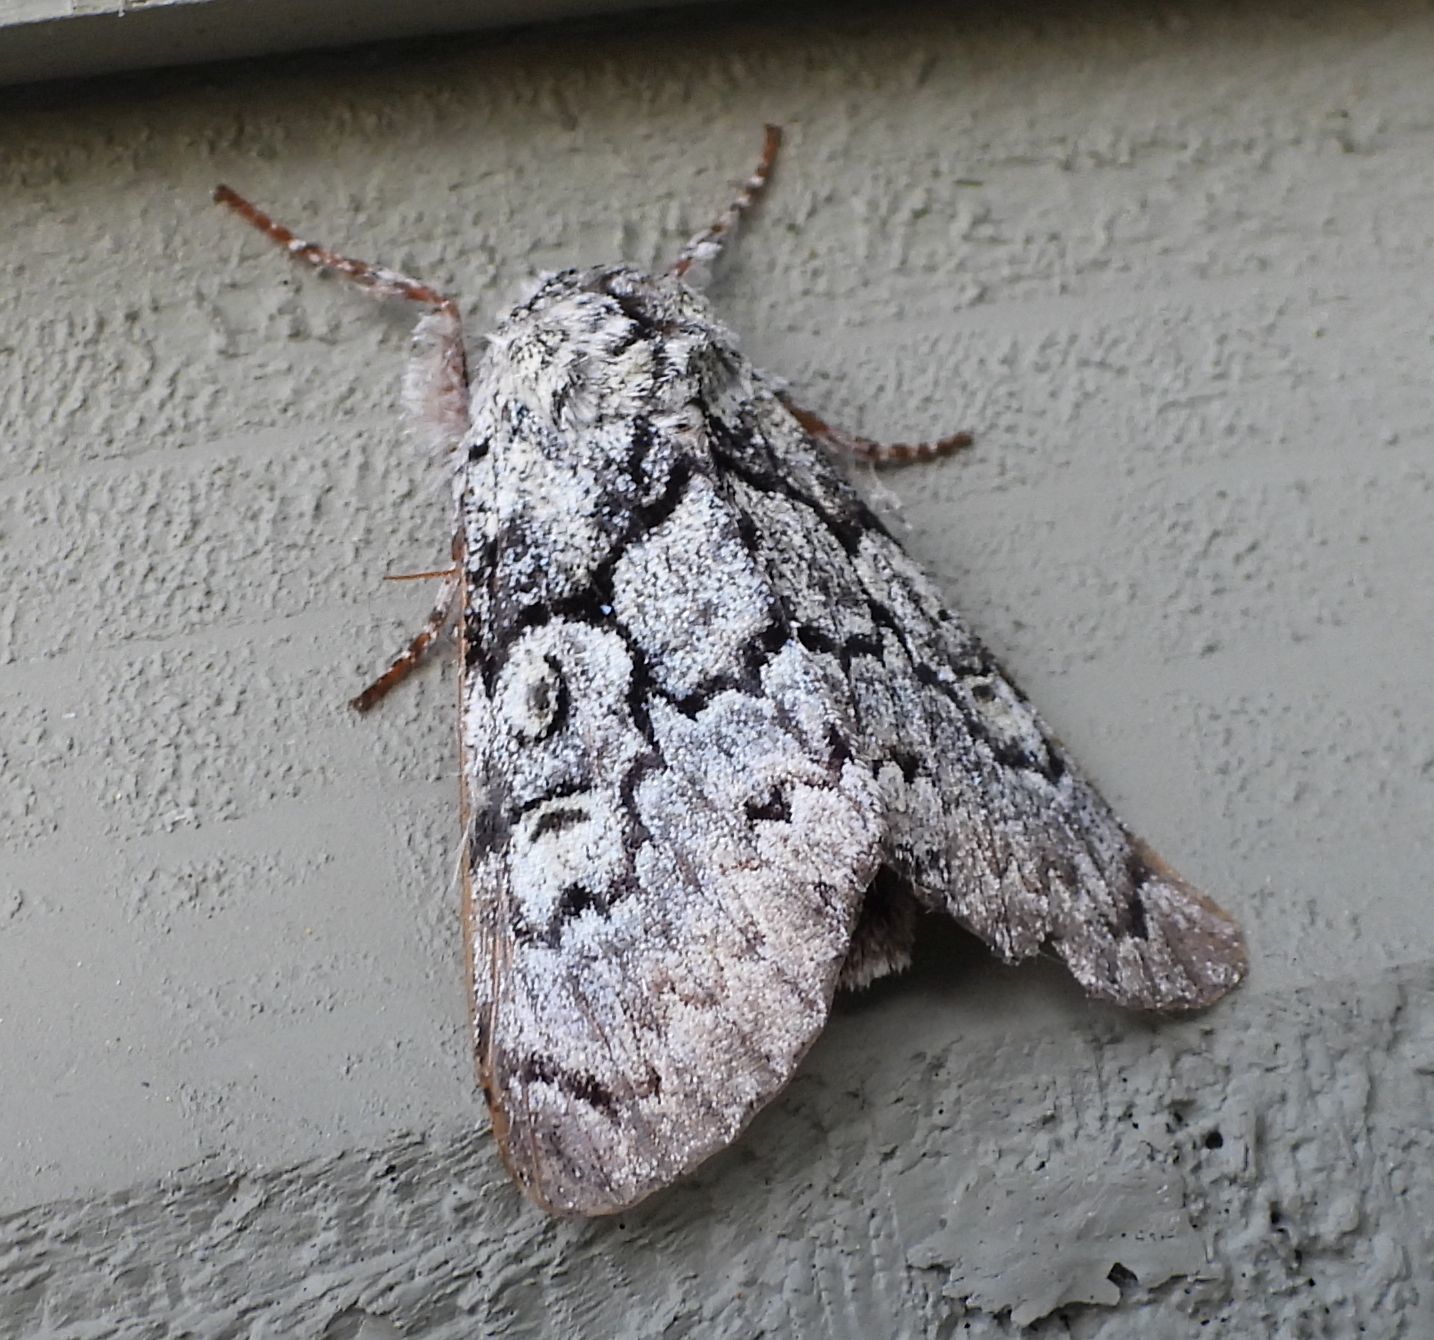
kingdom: Animalia
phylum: Arthropoda
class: Insecta
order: Lepidoptera
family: Noctuidae
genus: Charadra
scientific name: Charadra deridens
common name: Marbled tuffet
